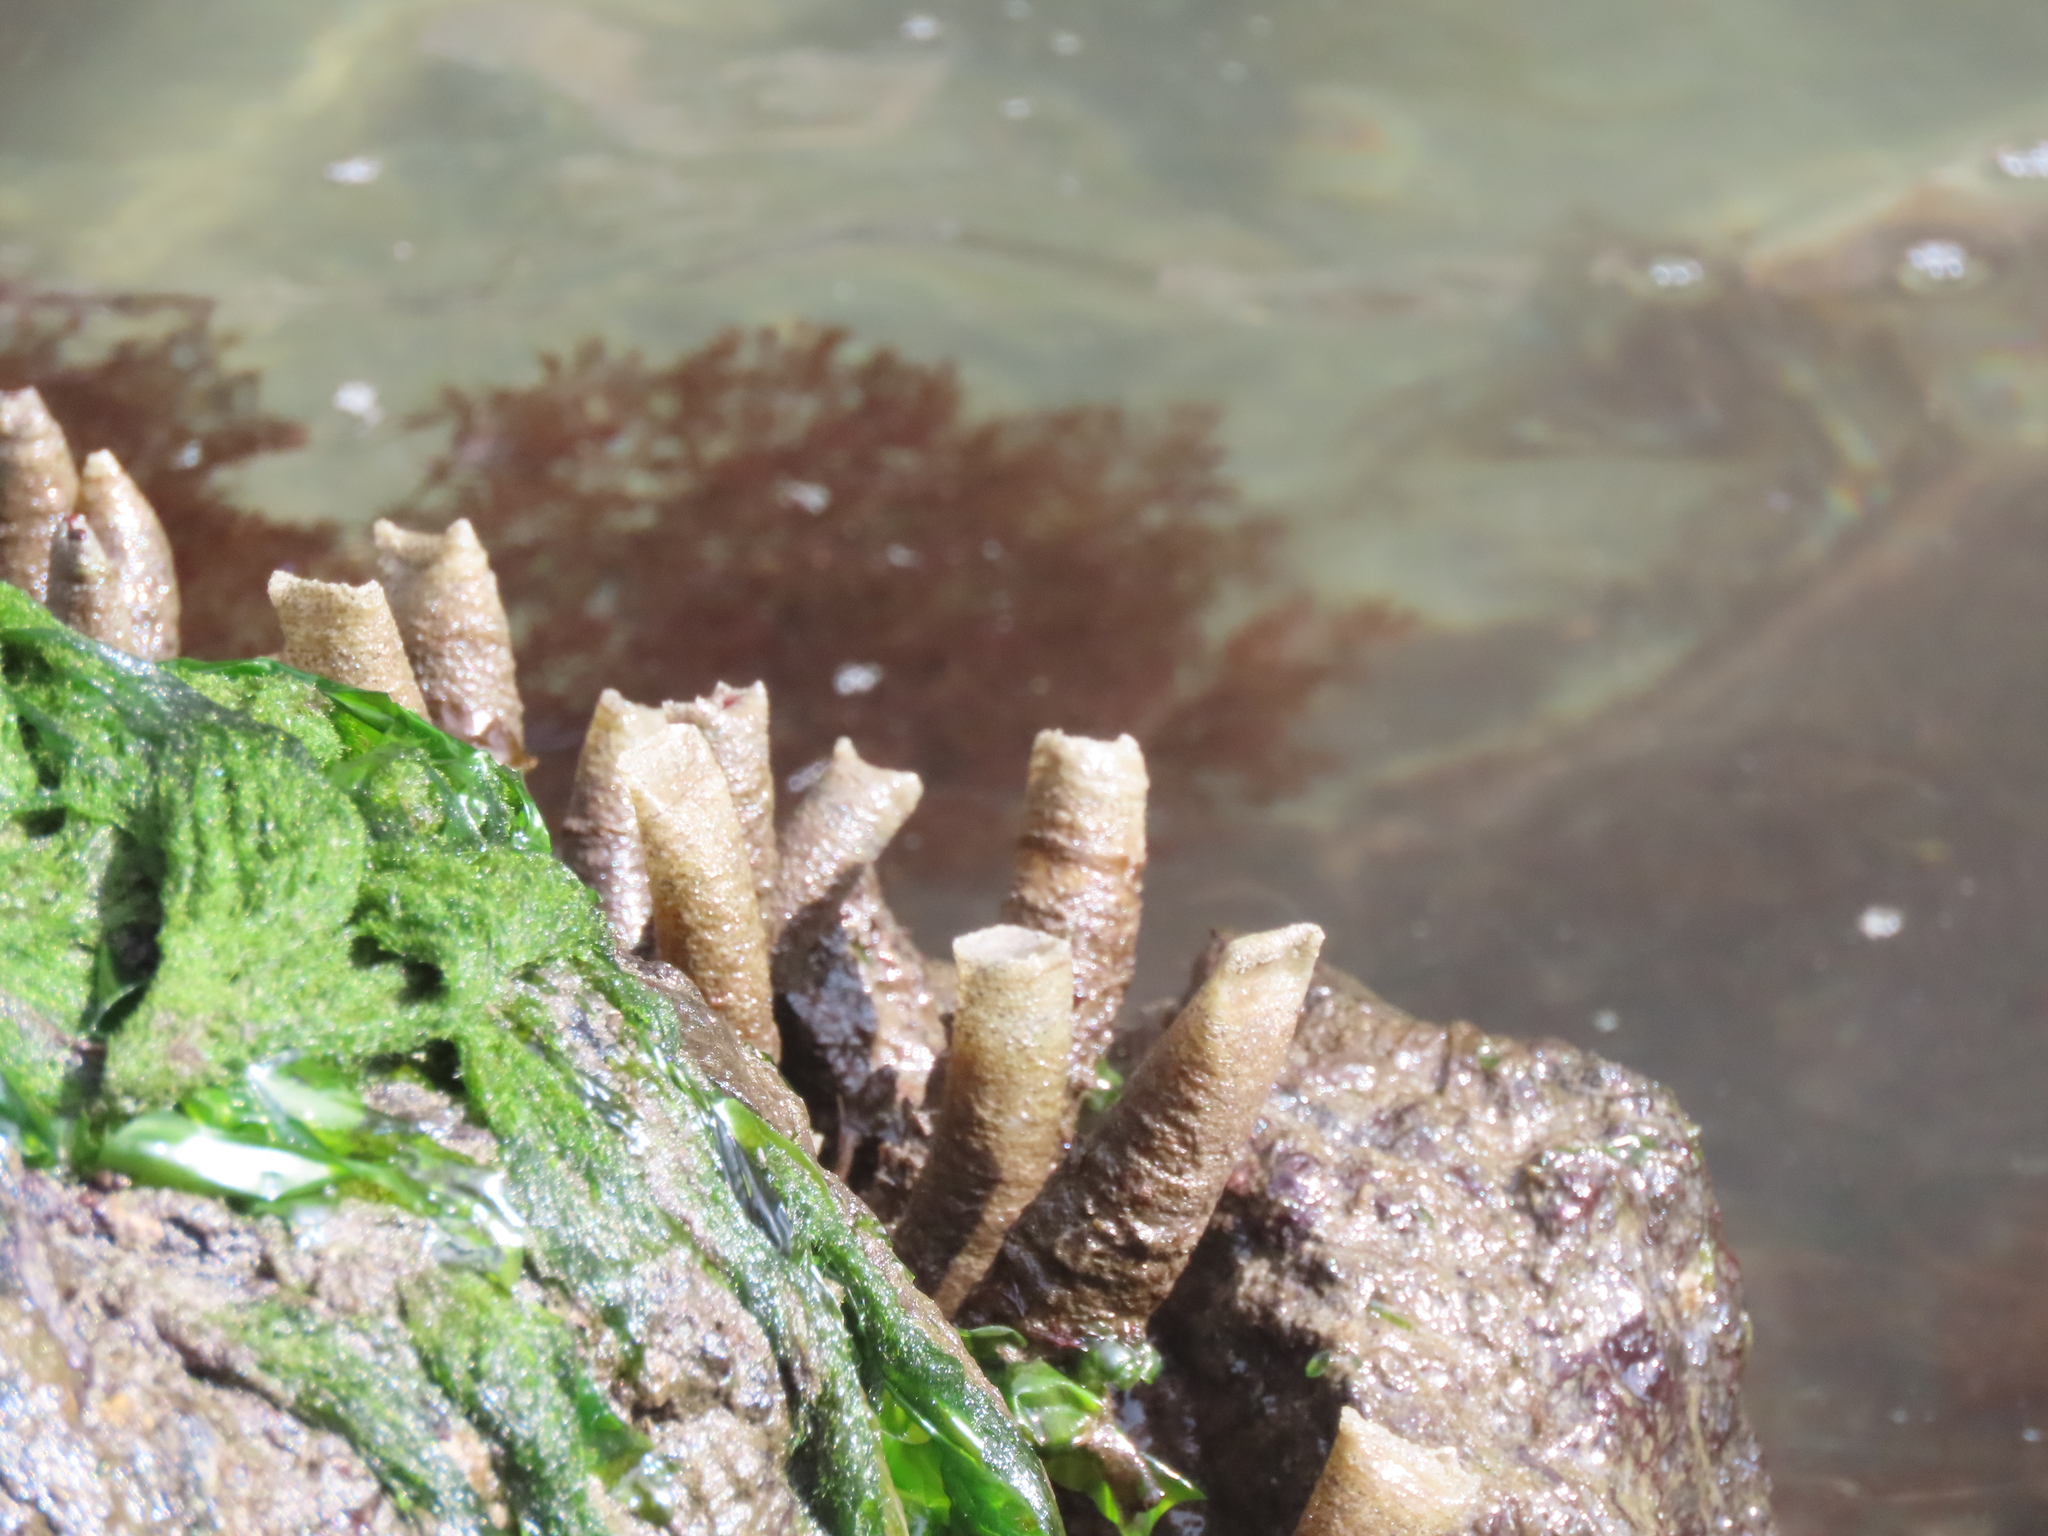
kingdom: Animalia
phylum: Annelida
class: Polychaeta
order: Sabellida
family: Sabellidae
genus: Eudistylia
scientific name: Eudistylia vancouveri
